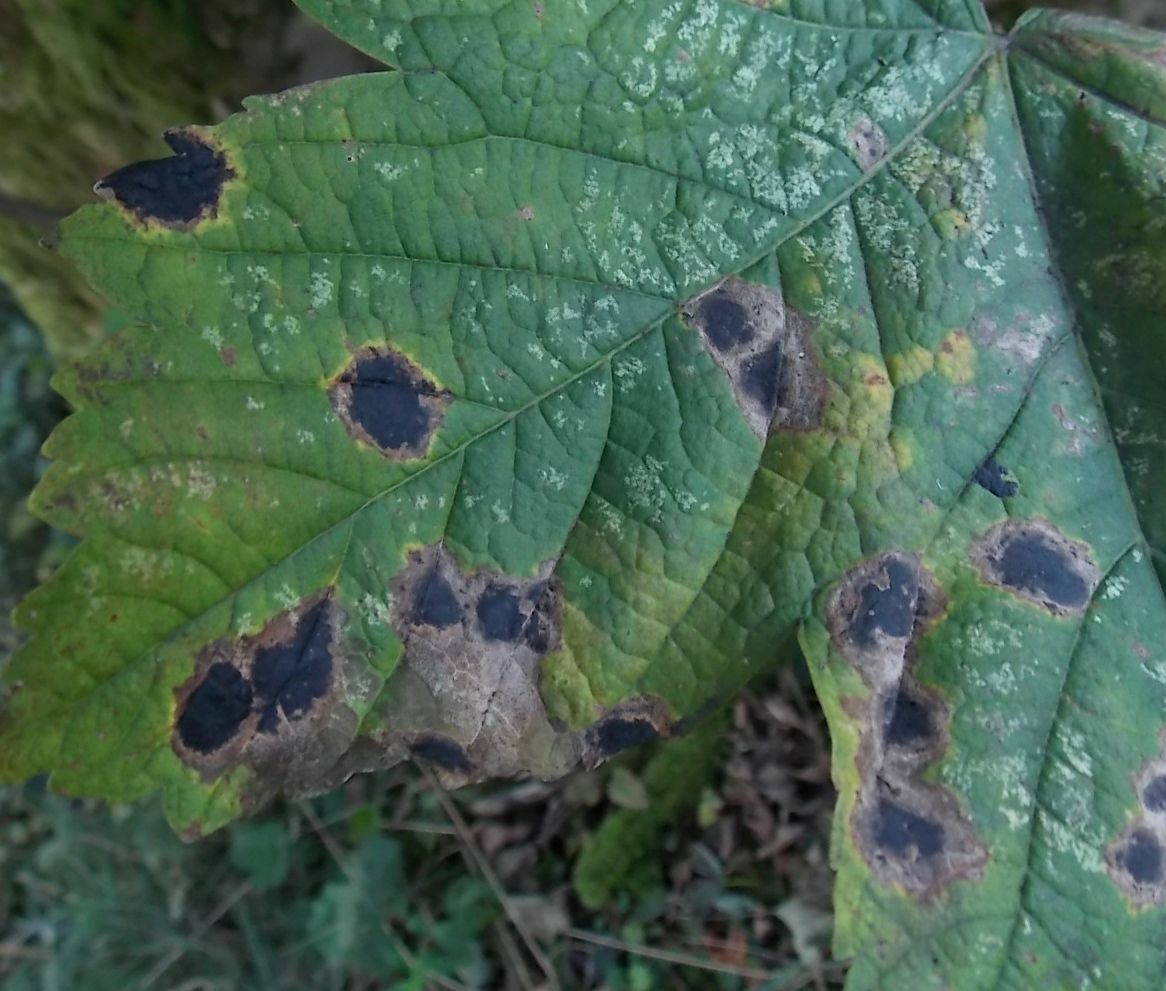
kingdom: Fungi
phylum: Ascomycota
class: Leotiomycetes
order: Rhytismatales
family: Rhytismataceae
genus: Rhytisma
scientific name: Rhytisma acerinum
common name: European tar spot
